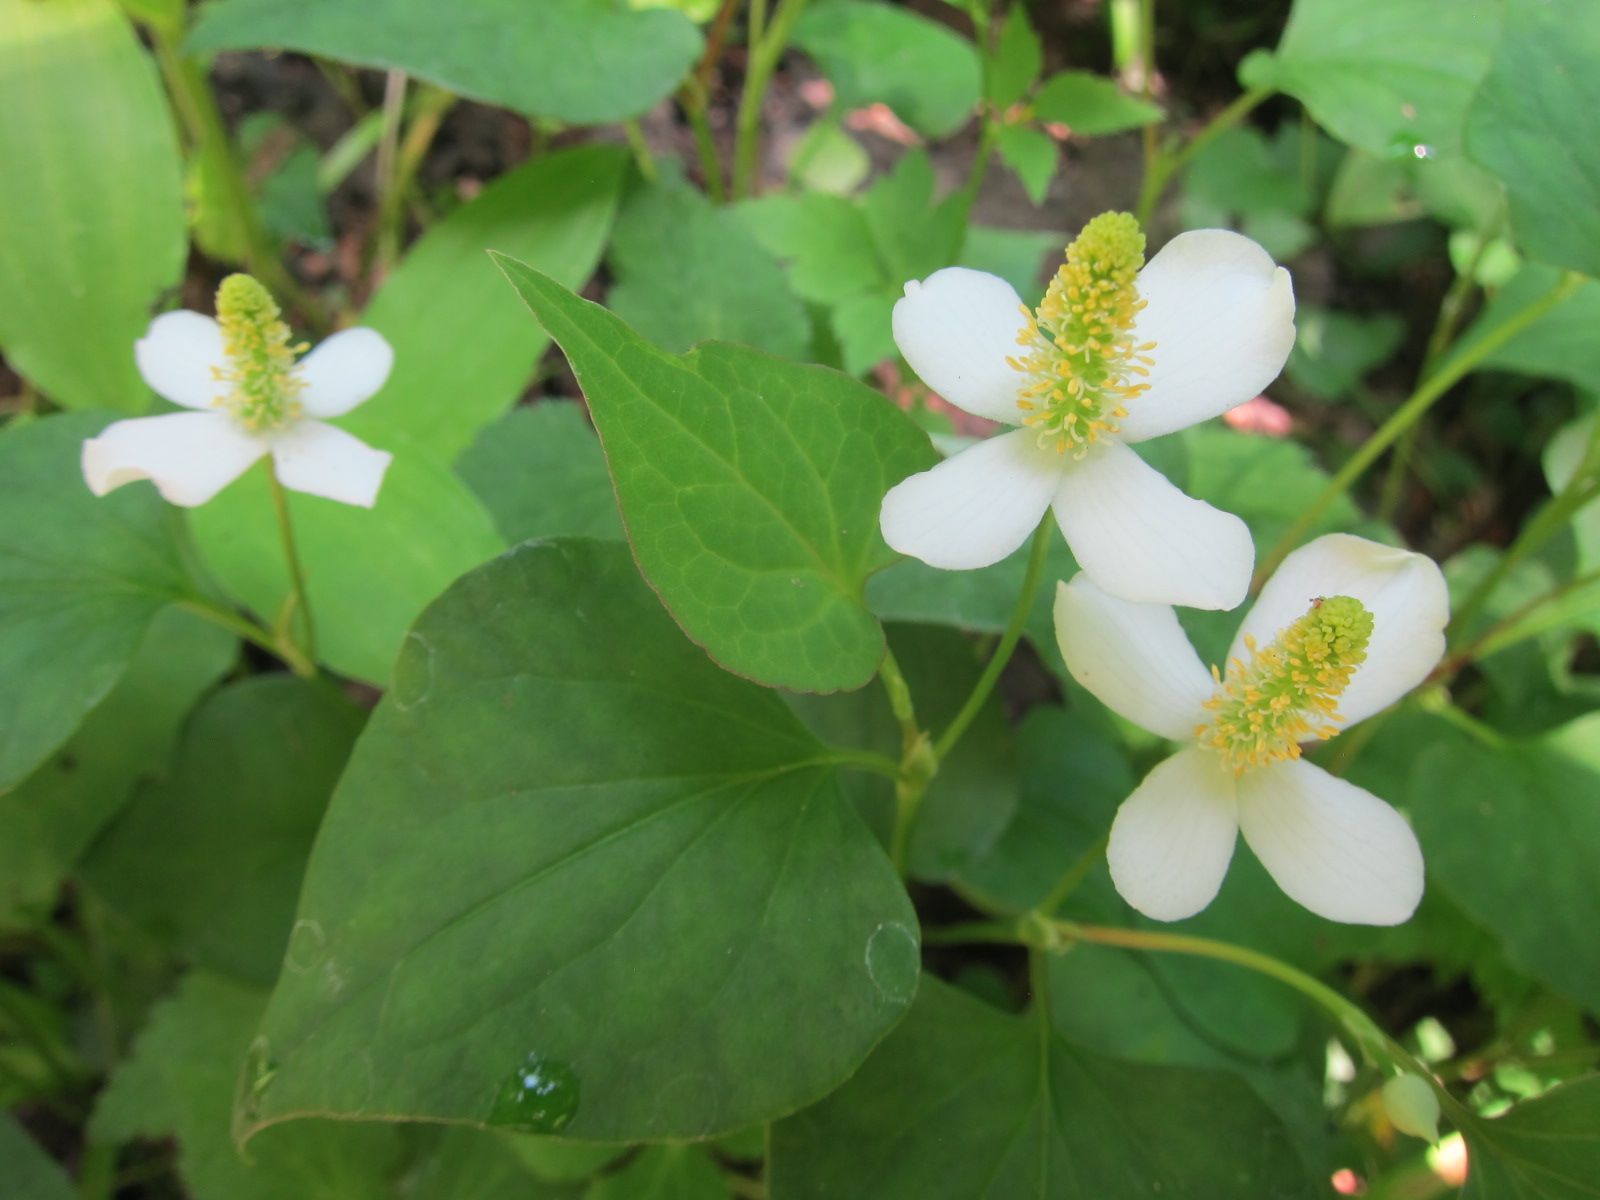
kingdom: Plantae
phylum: Tracheophyta
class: Magnoliopsida
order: Piperales
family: Saururaceae
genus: Houttuynia
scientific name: Houttuynia cordata
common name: Chameleon
